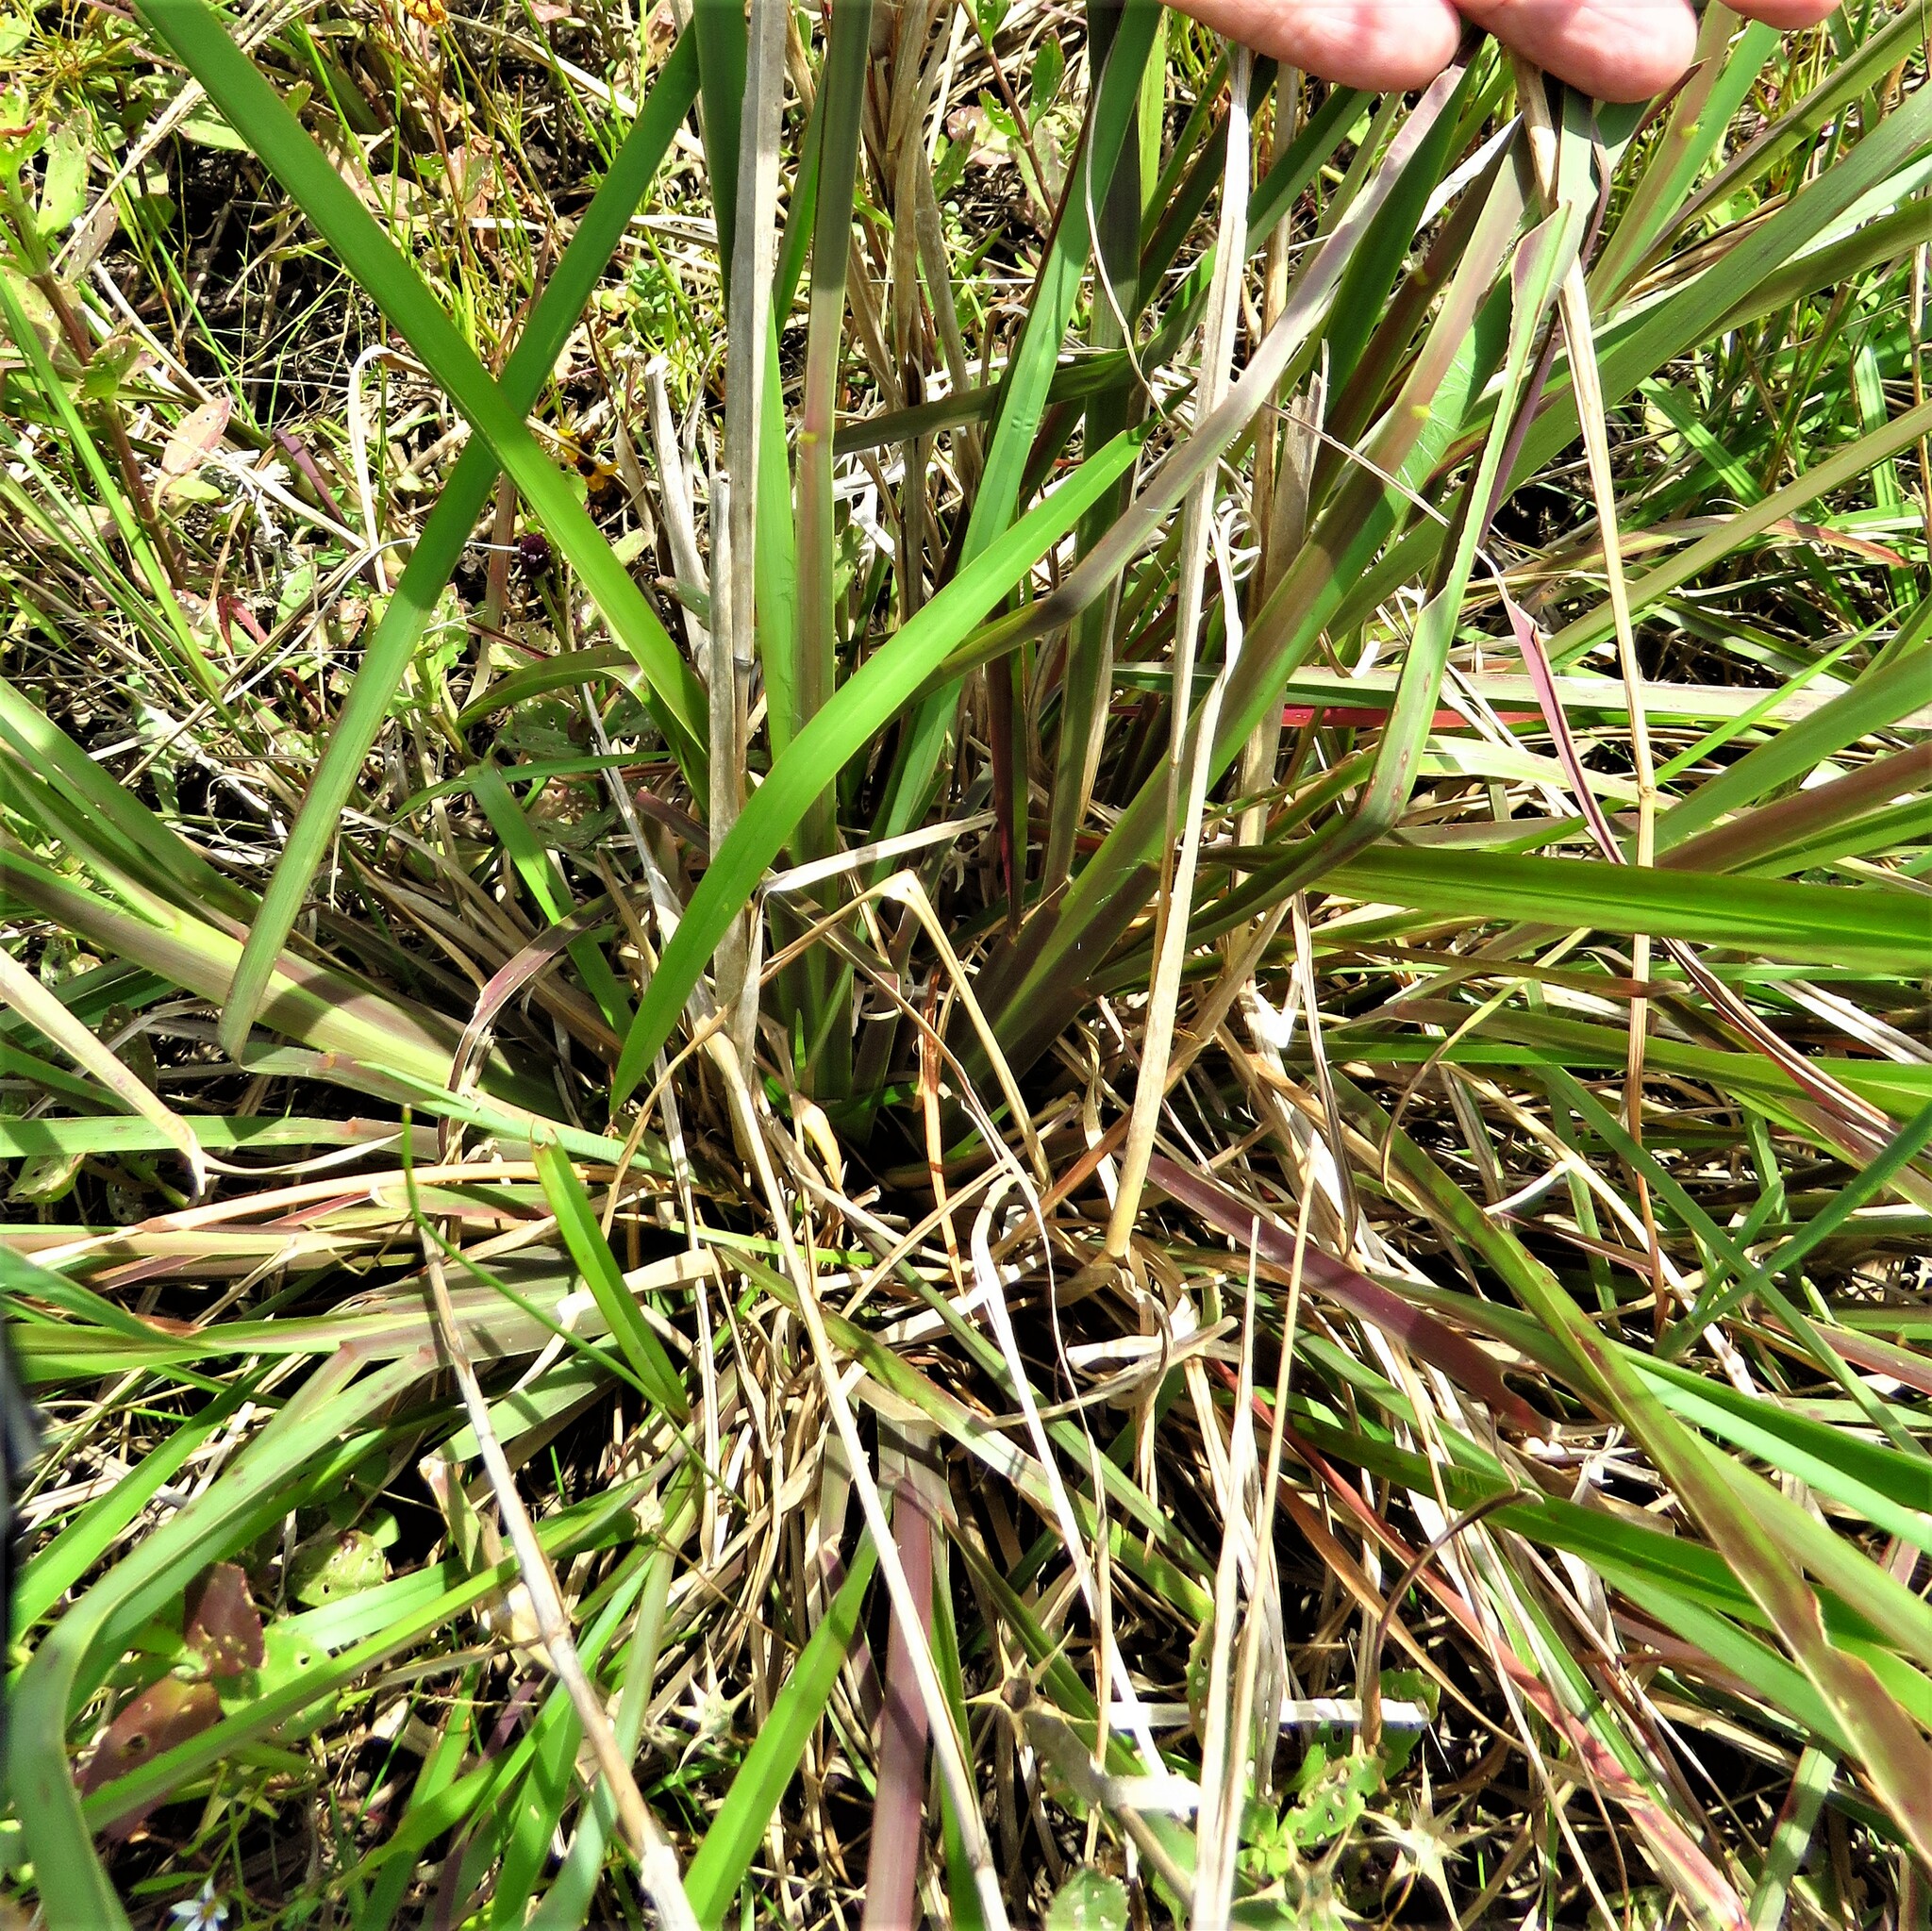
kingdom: Plantae
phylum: Tracheophyta
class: Liliopsida
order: Poales
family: Poaceae
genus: Andropogon
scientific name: Andropogon tenuispatheus
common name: Bushy bluestem
